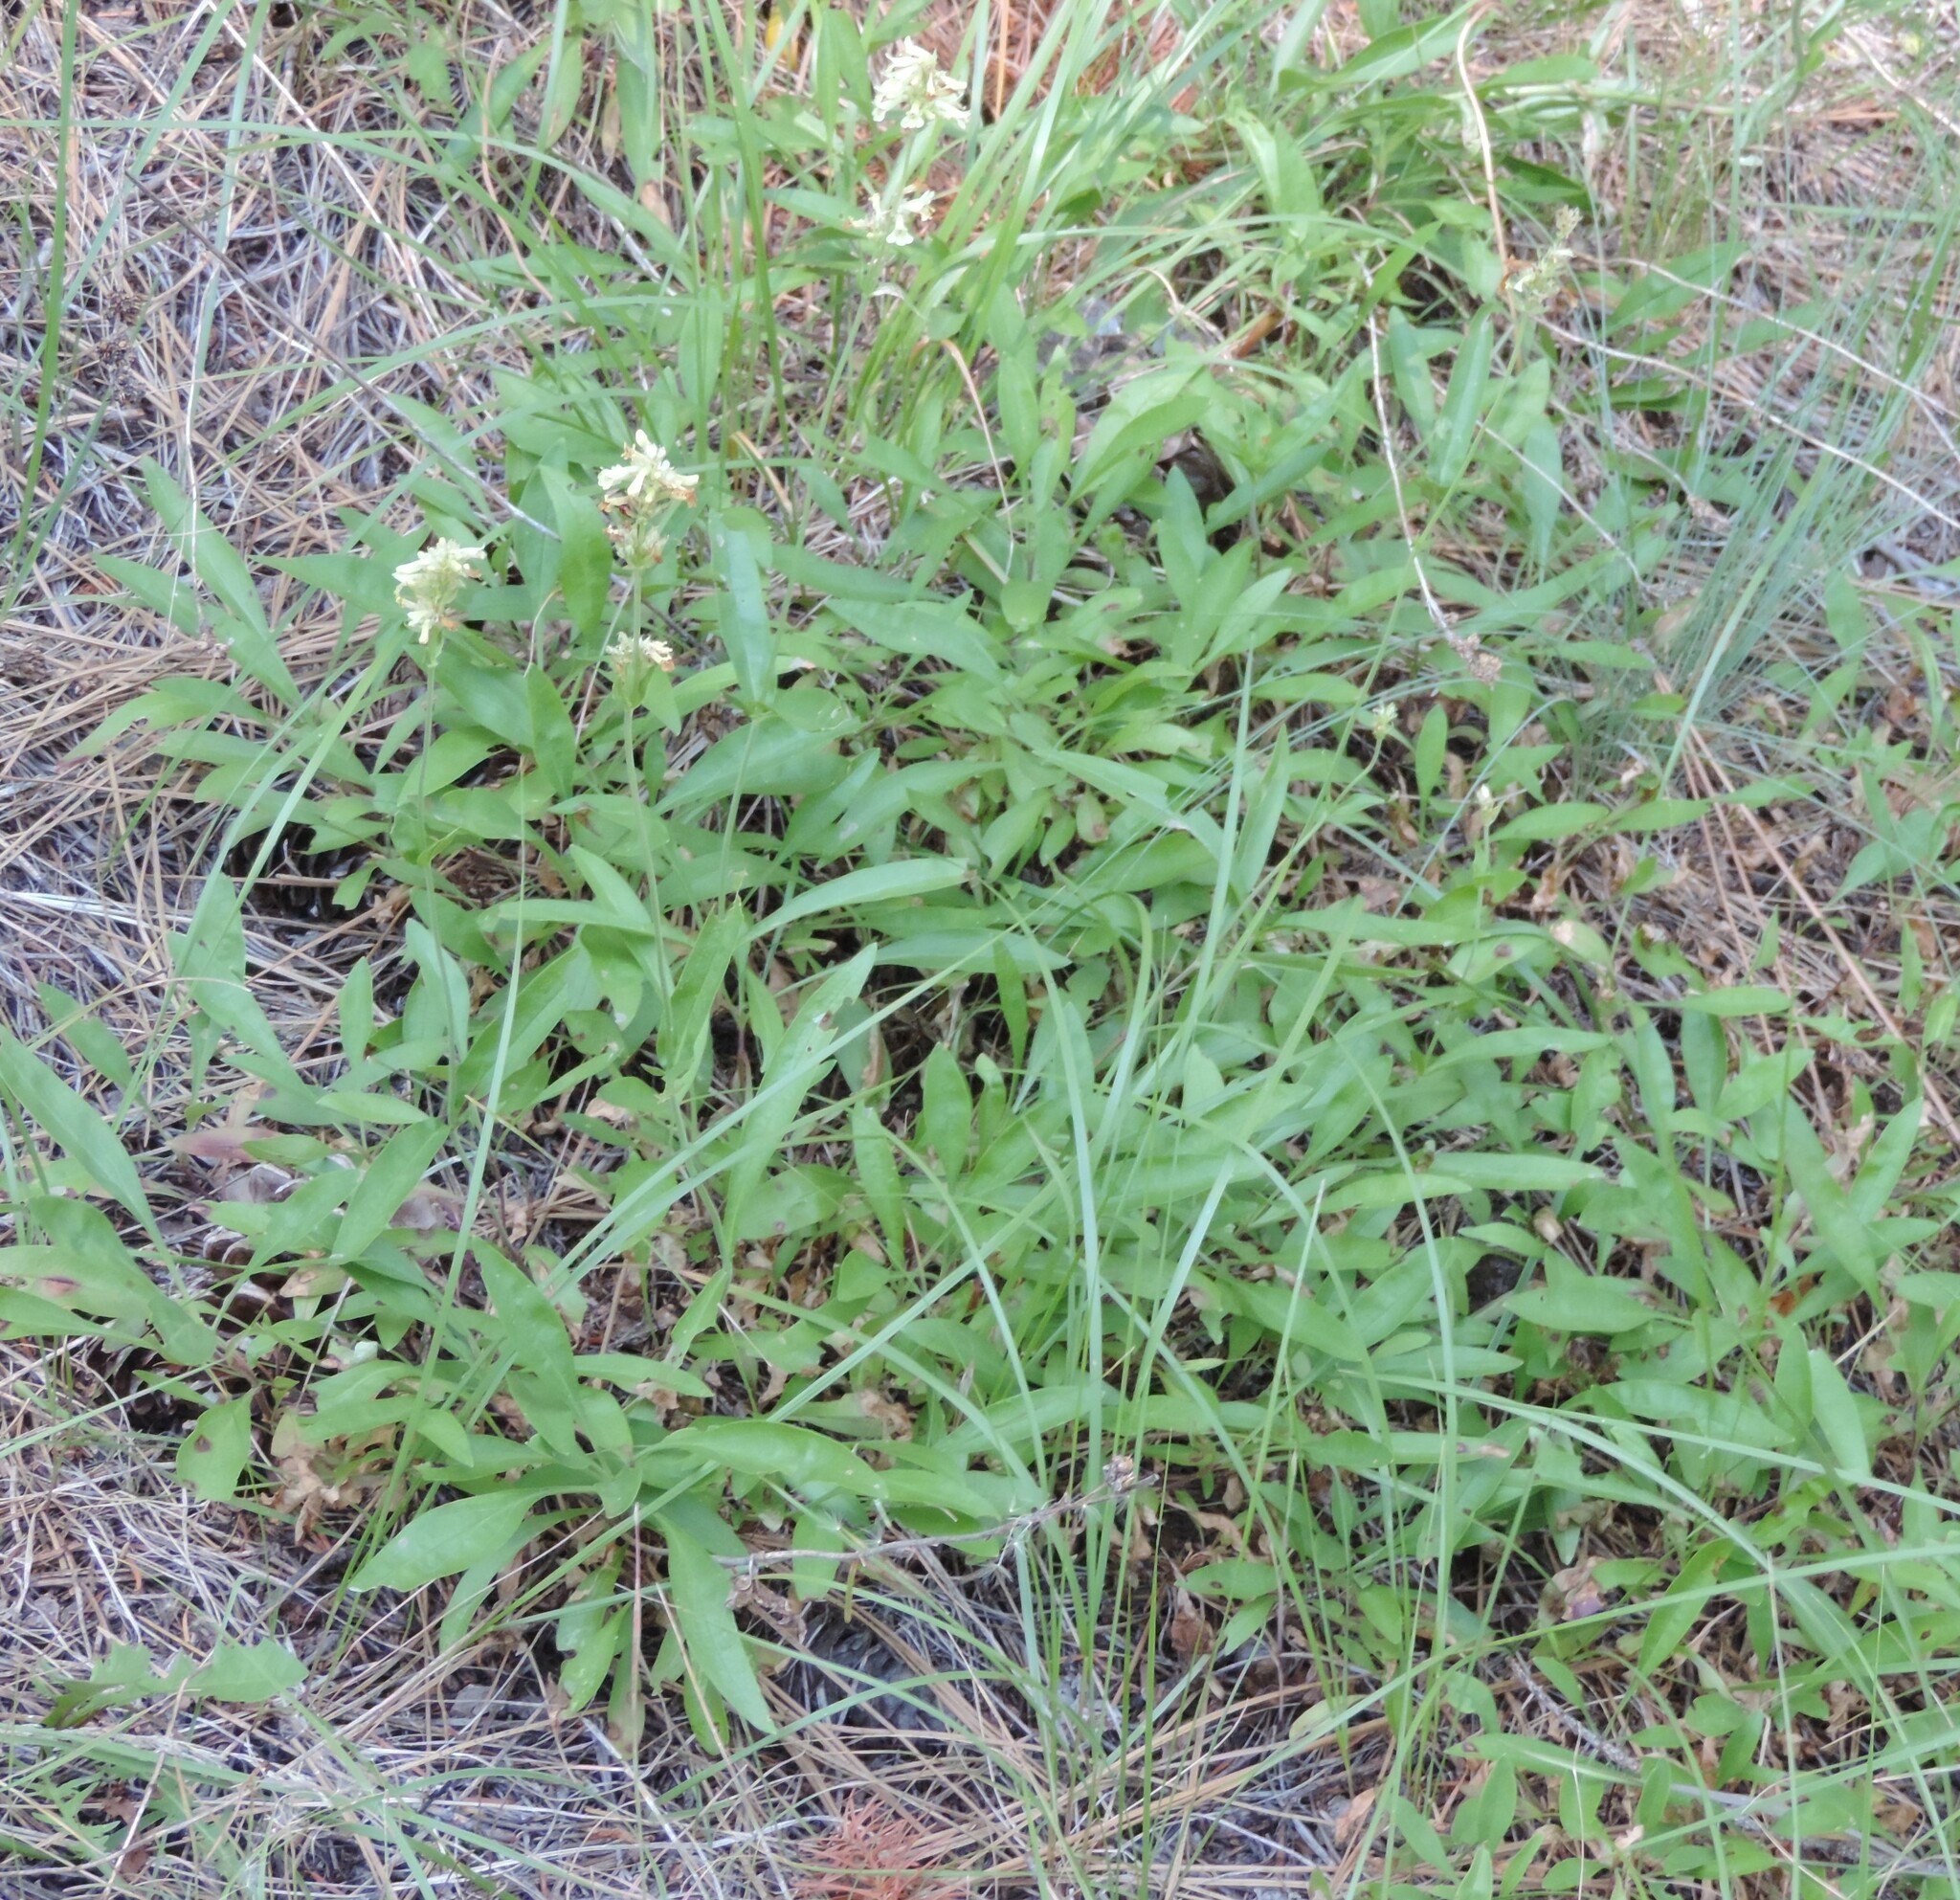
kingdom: Plantae
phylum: Tracheophyta
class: Magnoliopsida
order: Lamiales
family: Plantaginaceae
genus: Penstemon
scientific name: Penstemon confertus
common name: Lesser yellow beardtongue
